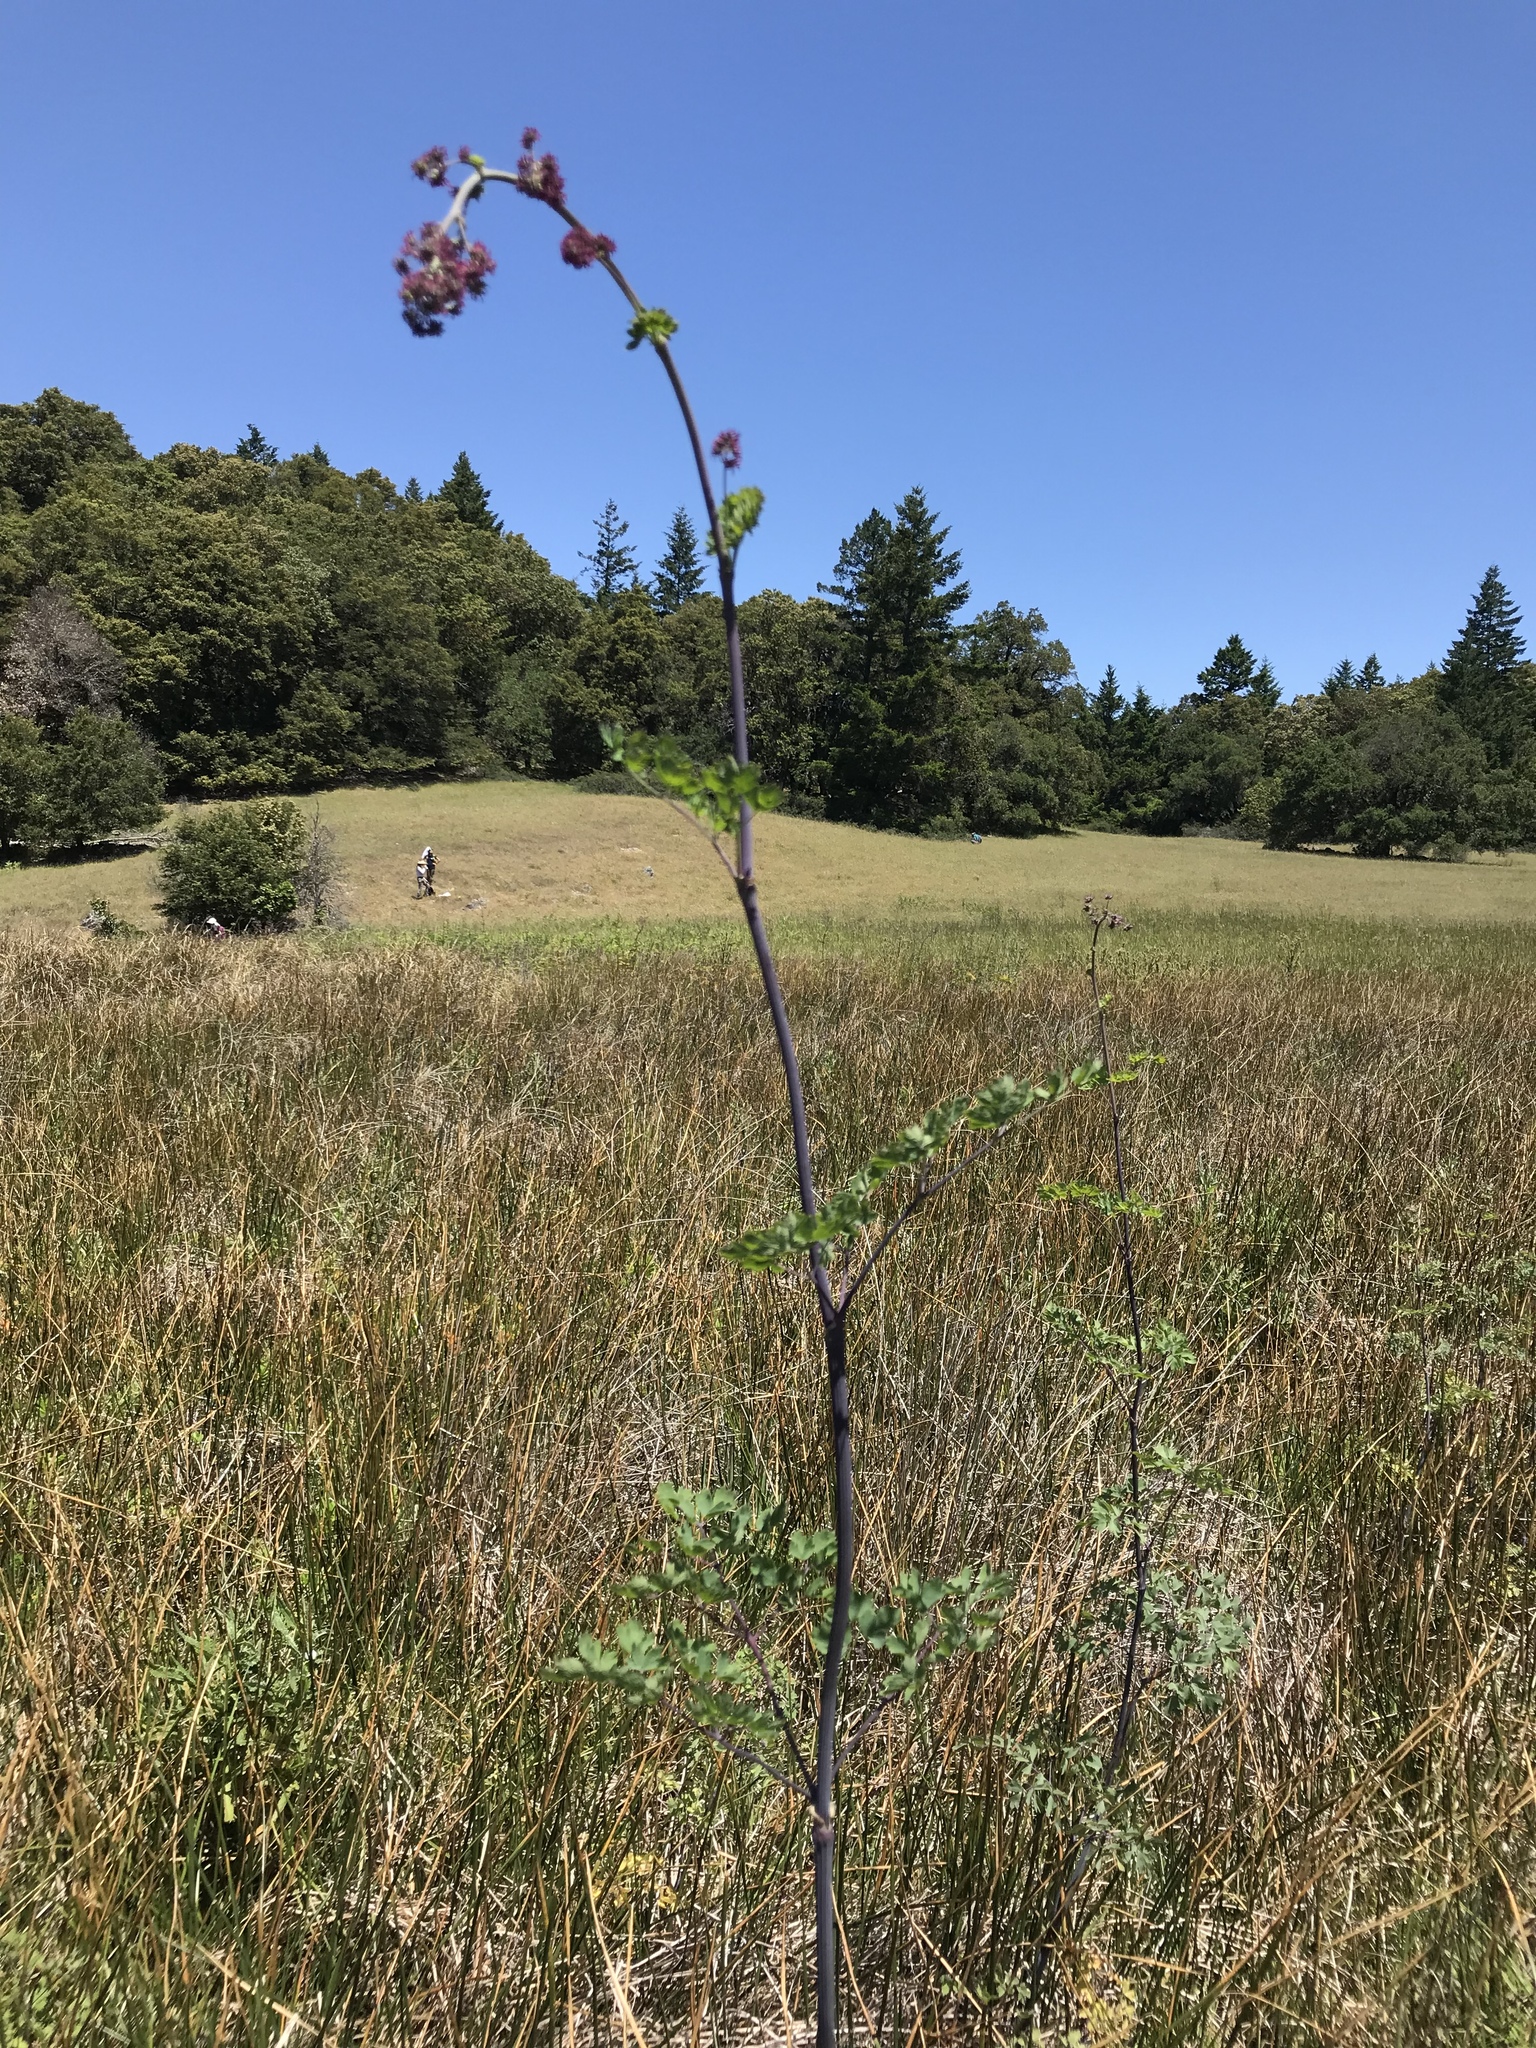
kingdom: Plantae
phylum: Tracheophyta
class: Magnoliopsida
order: Ranunculales
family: Ranunculaceae
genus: Thalictrum
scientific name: Thalictrum fendleri
